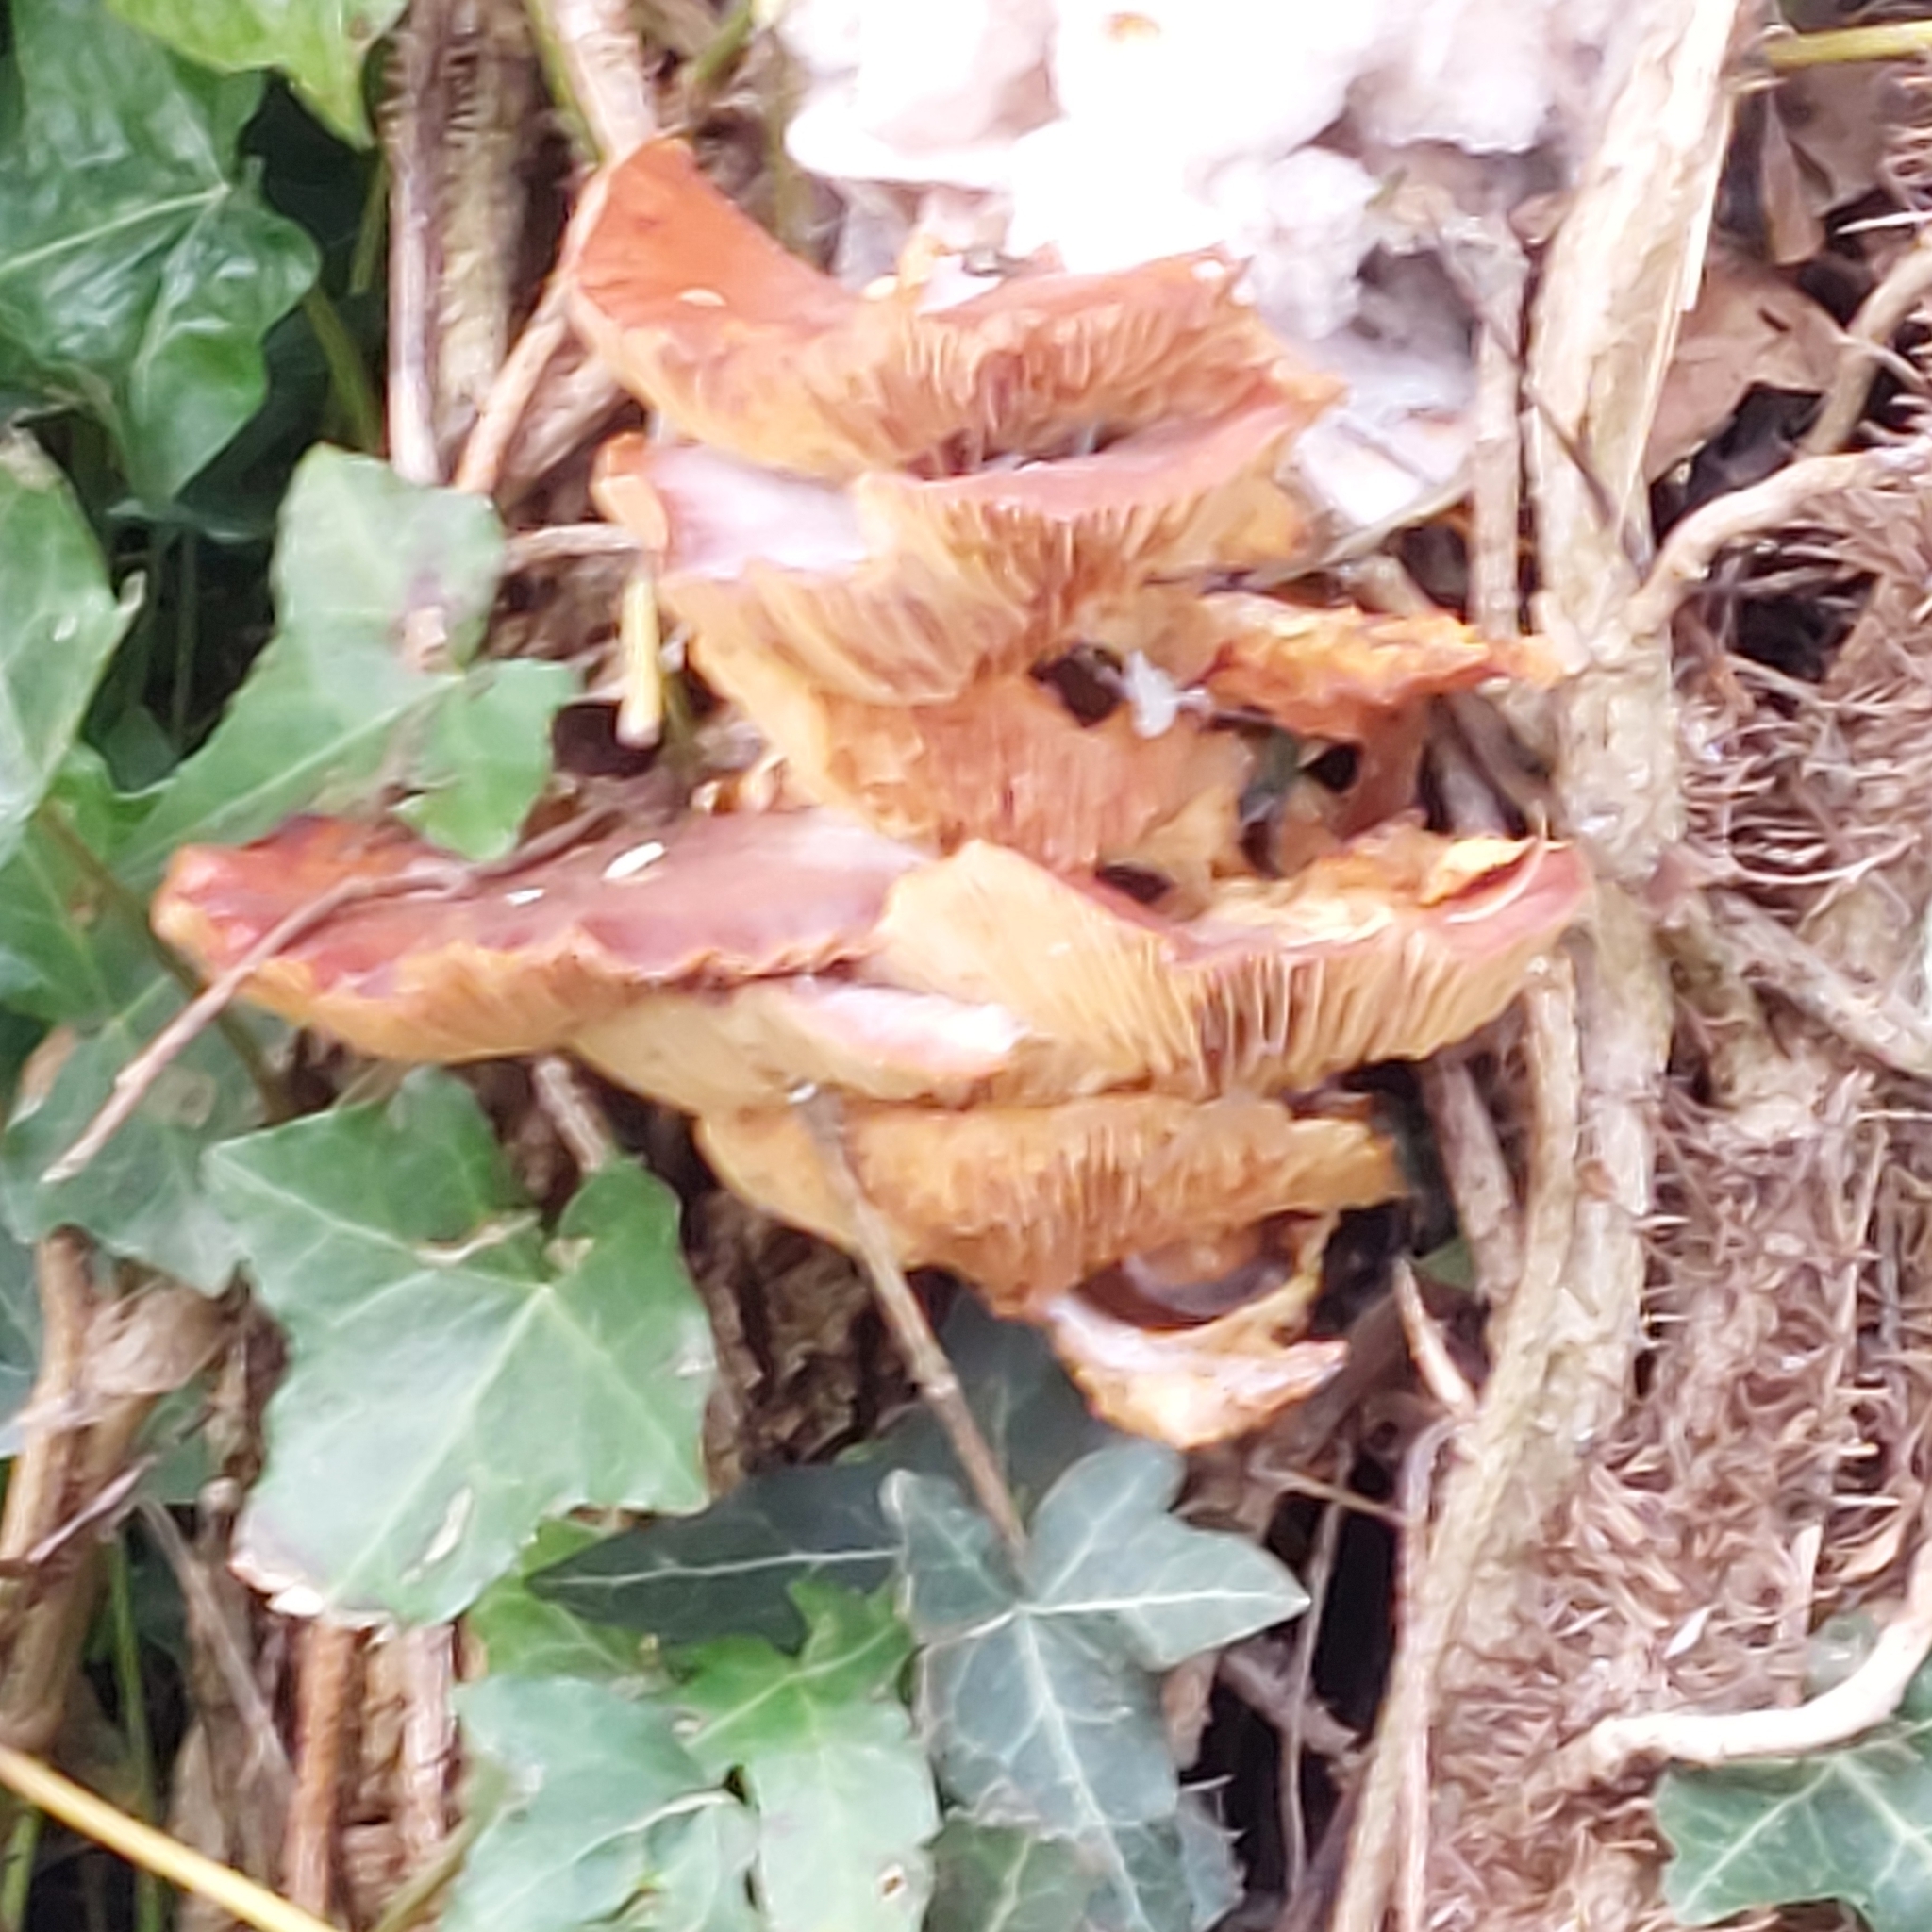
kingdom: Fungi
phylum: Basidiomycota
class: Agaricomycetes
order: Agaricales
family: Physalacriaceae
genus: Flammulina
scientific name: Flammulina
